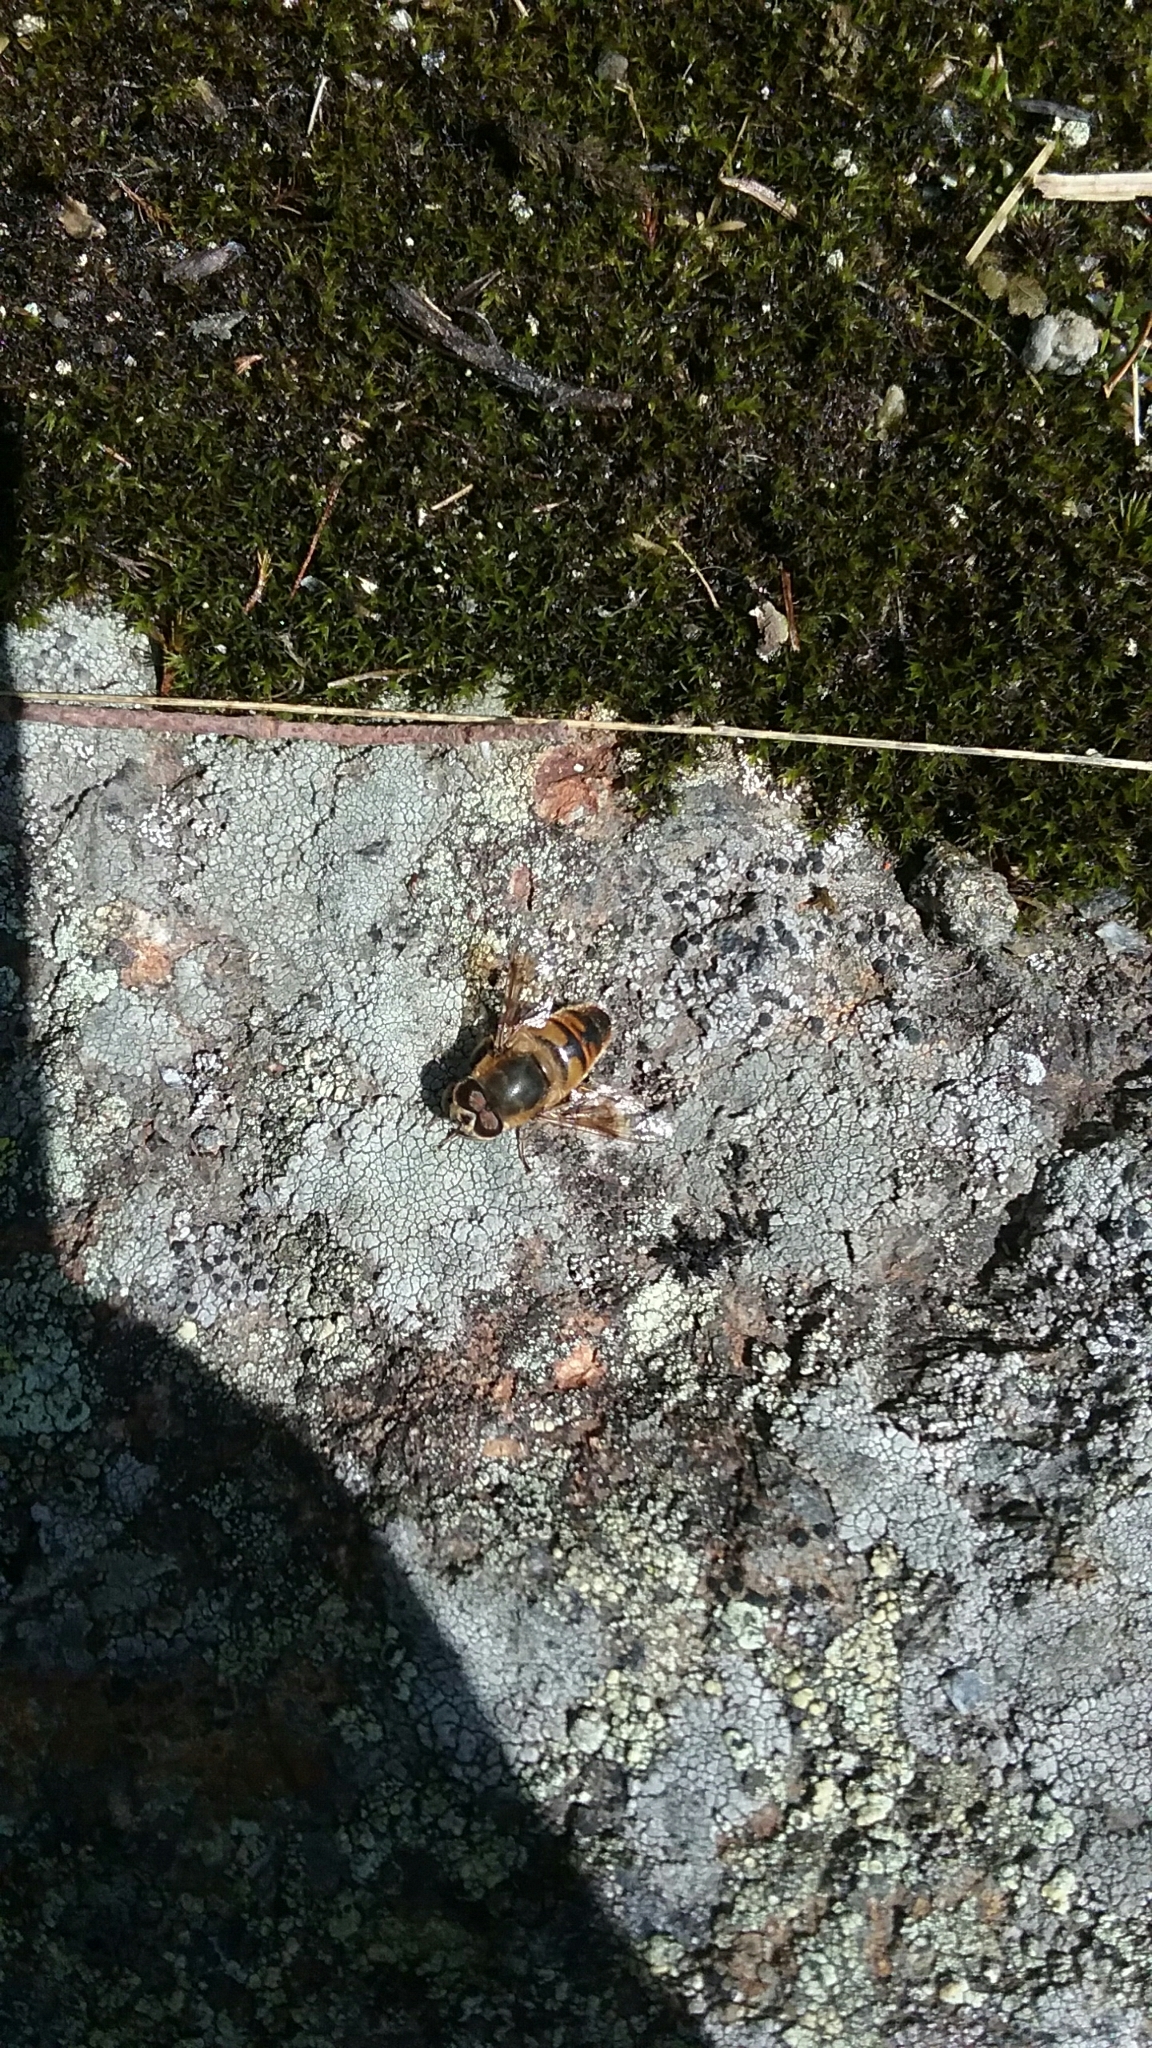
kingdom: Animalia
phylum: Arthropoda
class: Insecta
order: Diptera
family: Syrphidae
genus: Eristalis
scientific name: Eristalis tenax
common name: Drone fly
